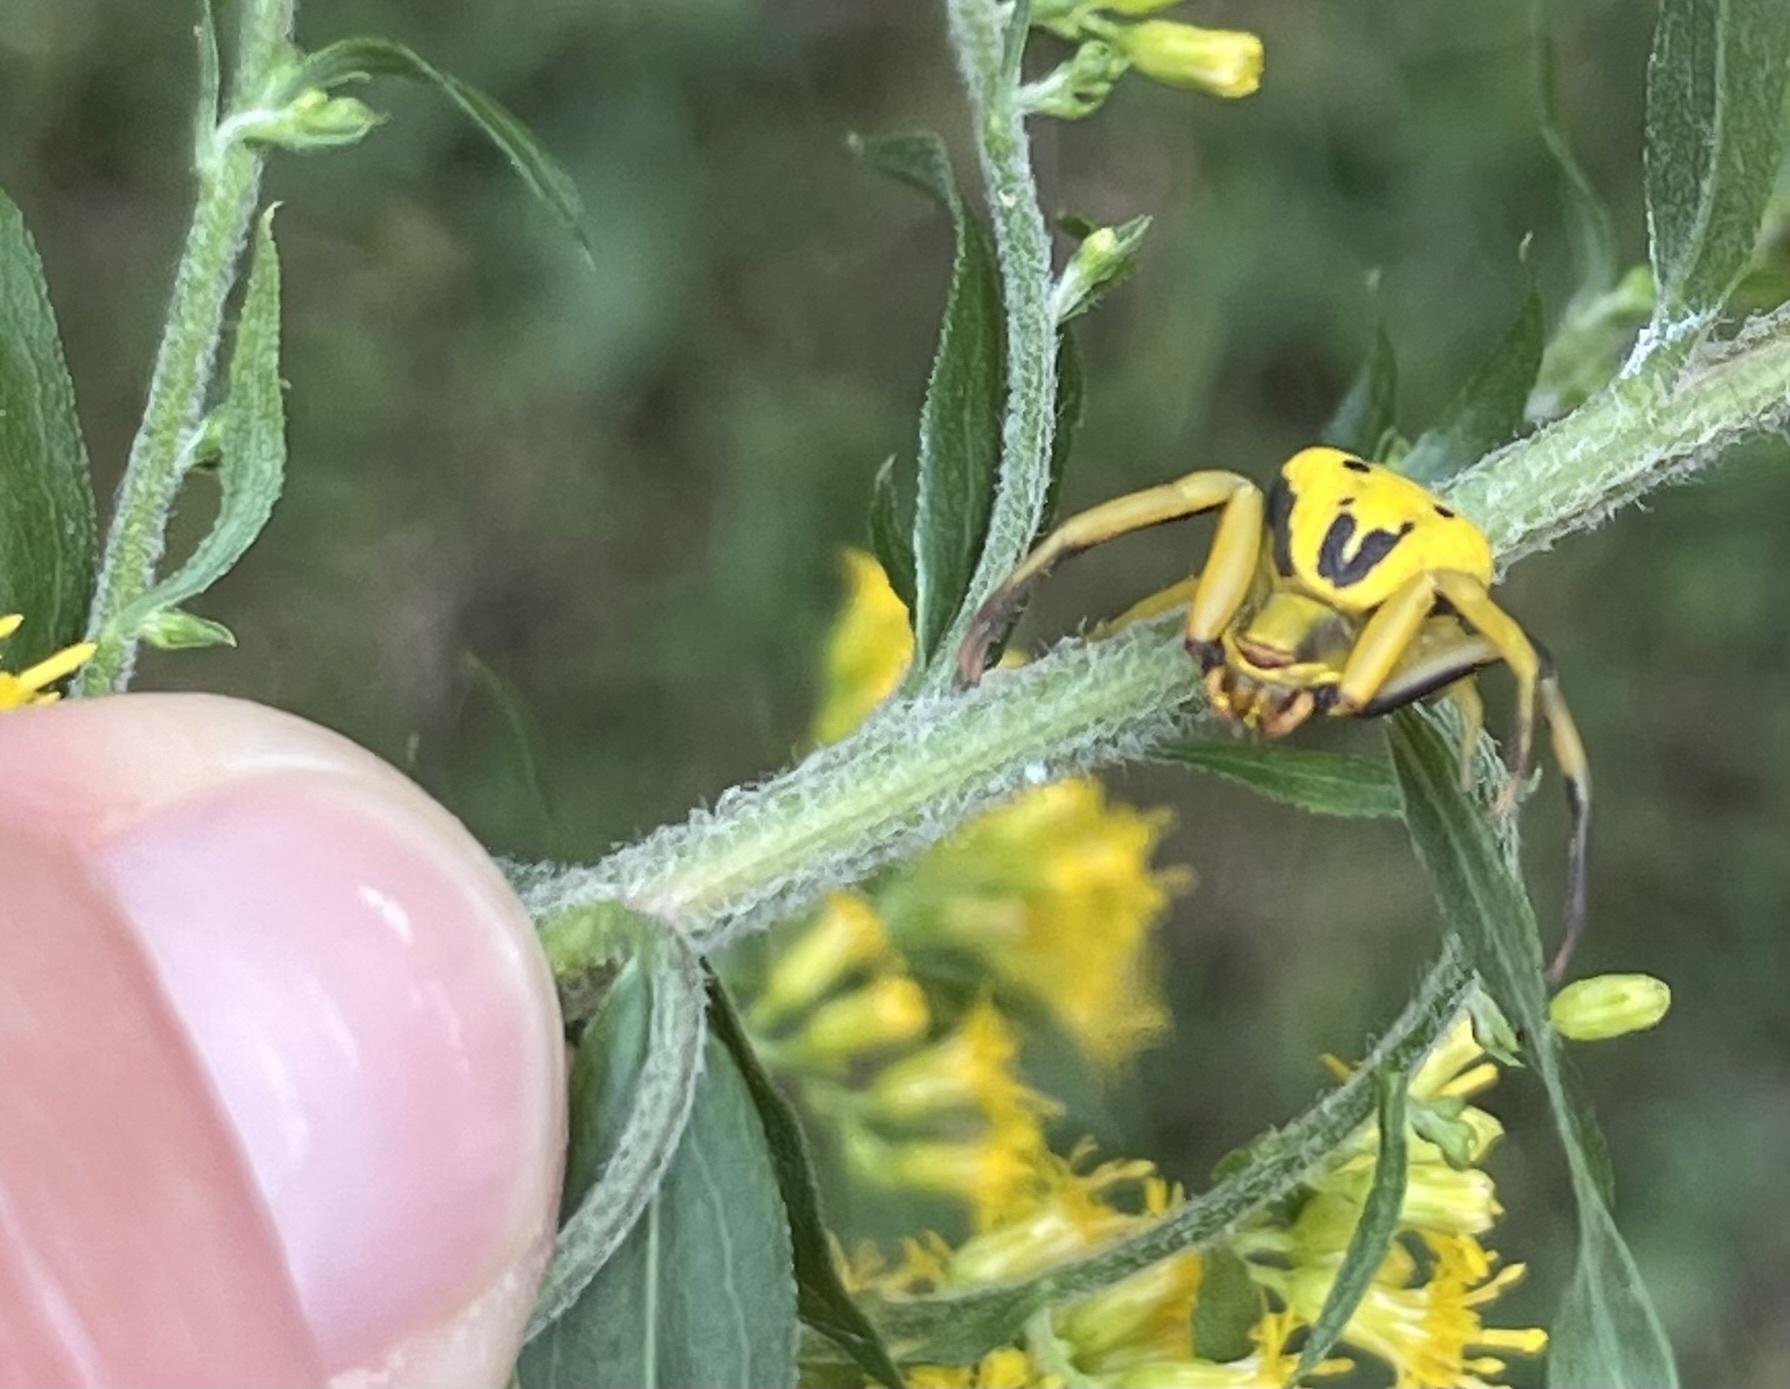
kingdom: Animalia
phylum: Arthropoda
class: Arachnida
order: Araneae
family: Thomisidae
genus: Misumenoides
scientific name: Misumenoides formosipes
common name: White-banded crab spider
